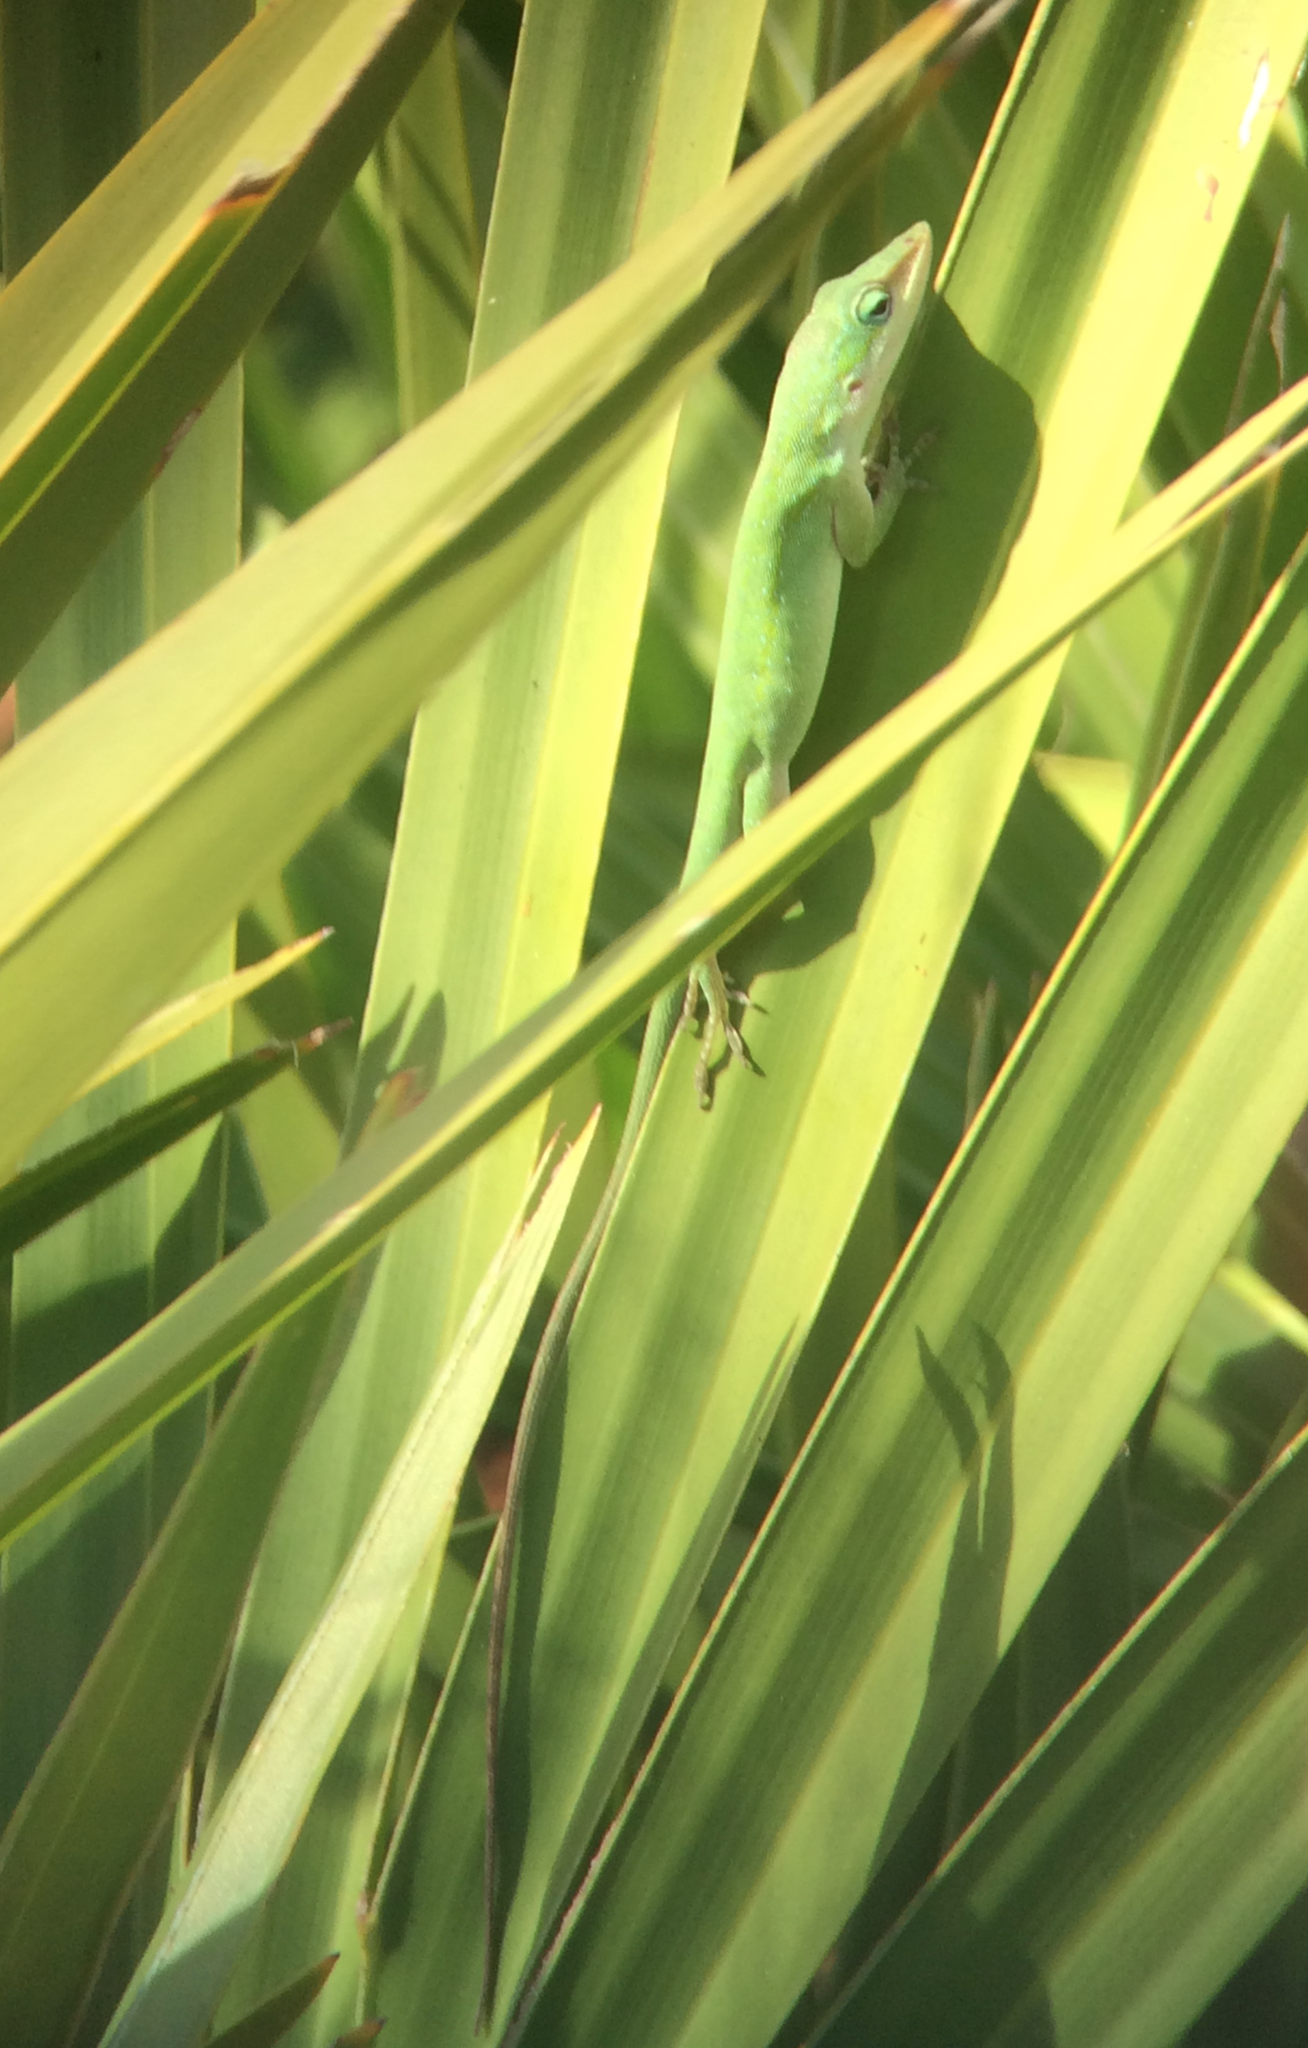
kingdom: Animalia
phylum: Chordata
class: Squamata
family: Dactyloidae
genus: Anolis
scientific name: Anolis carolinensis
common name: Green anole
